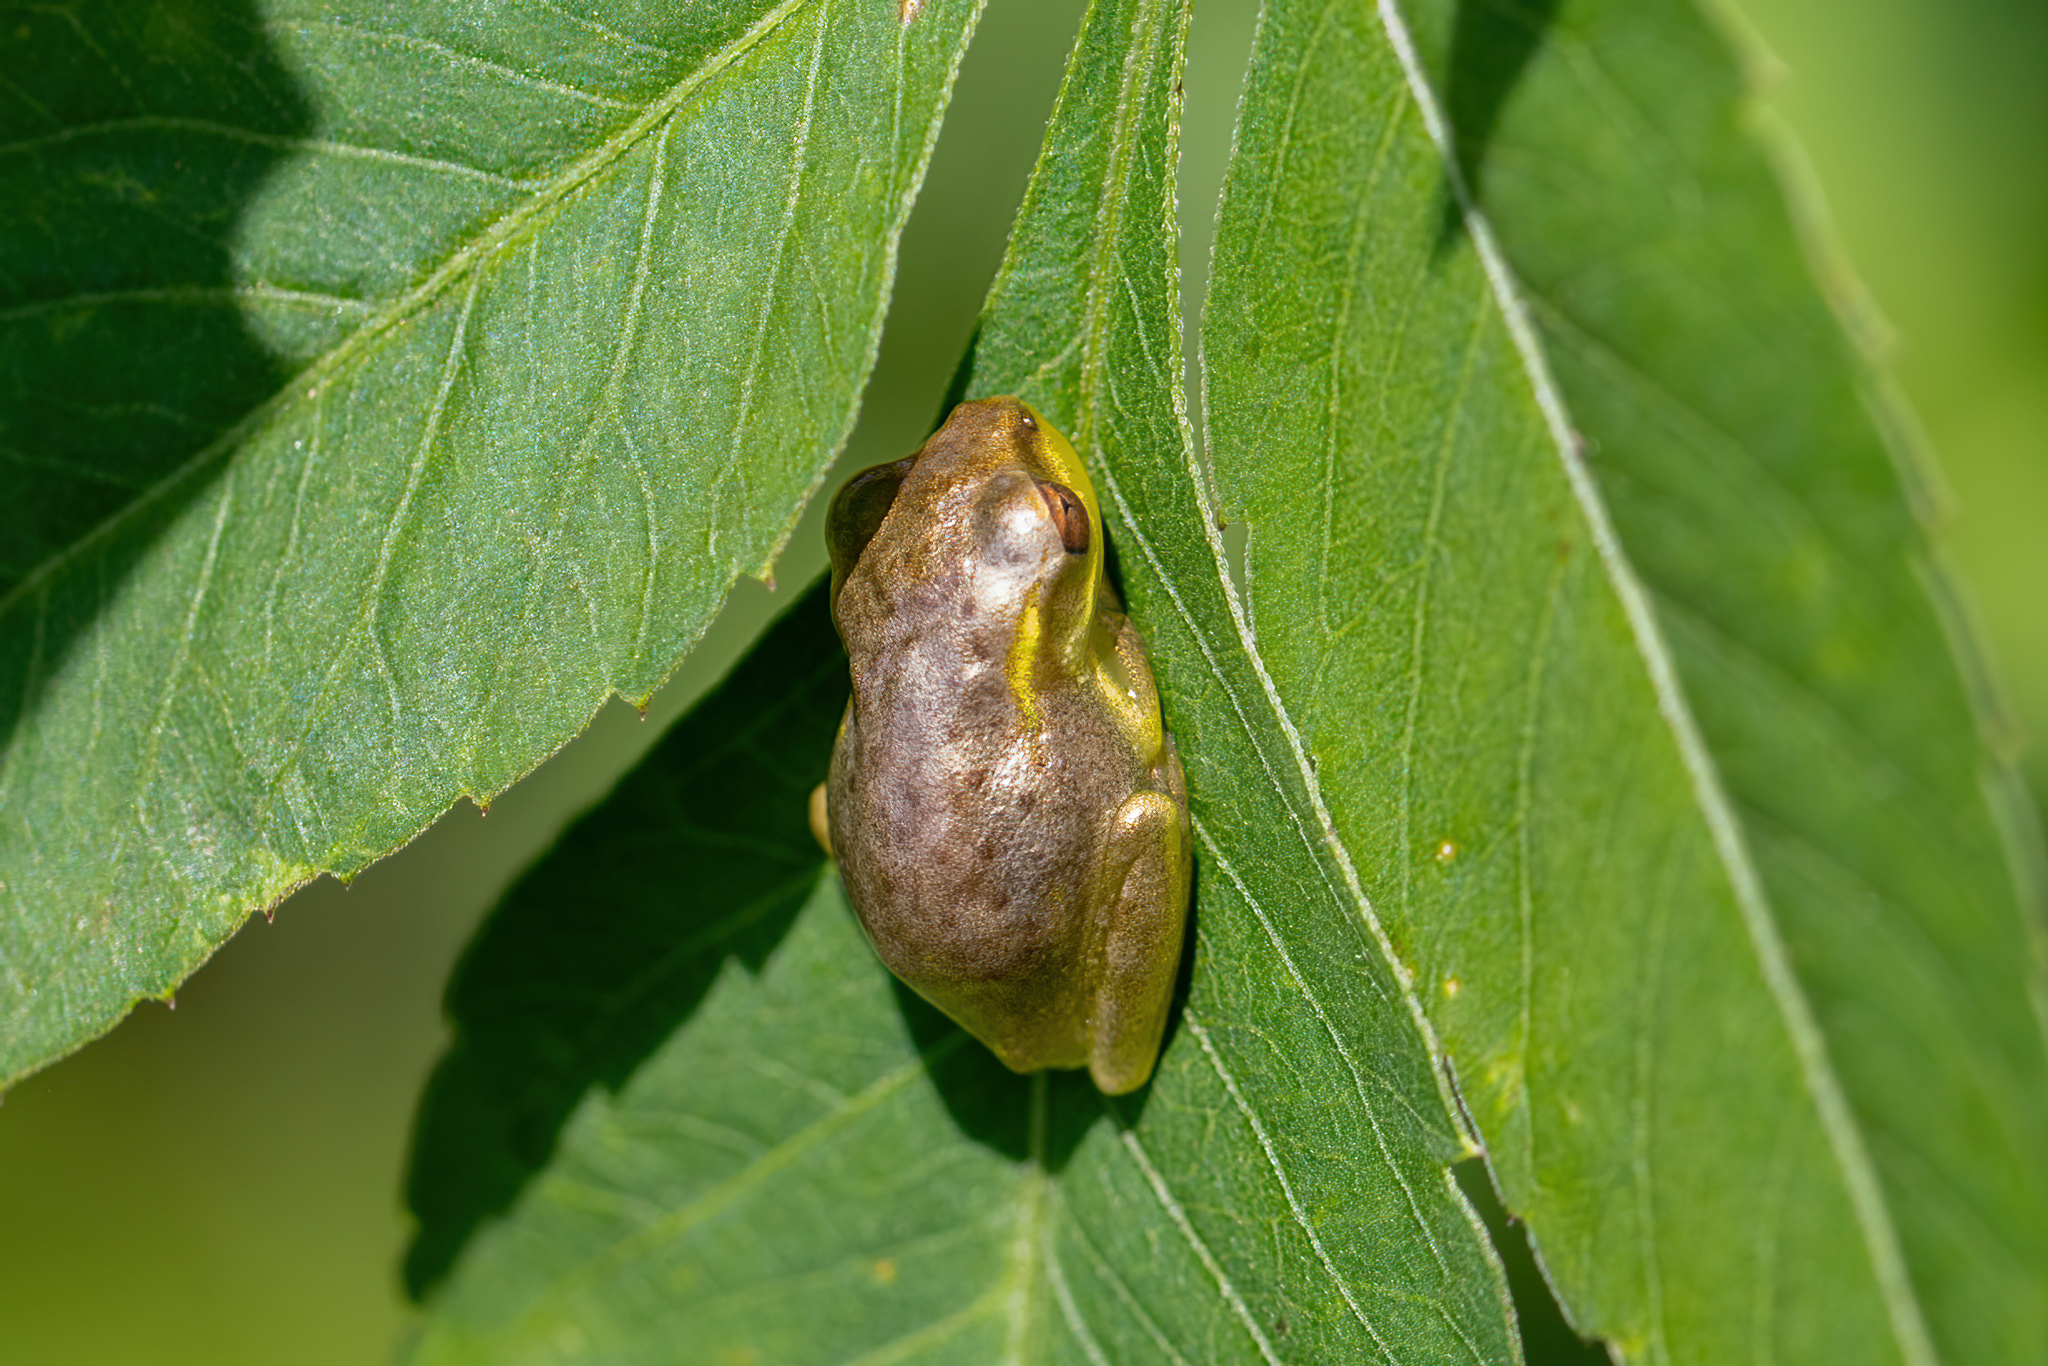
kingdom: Animalia
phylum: Chordata
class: Amphibia
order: Anura
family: Hylidae
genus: Osteopilus
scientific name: Osteopilus septentrionalis
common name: Cuban treefrog
